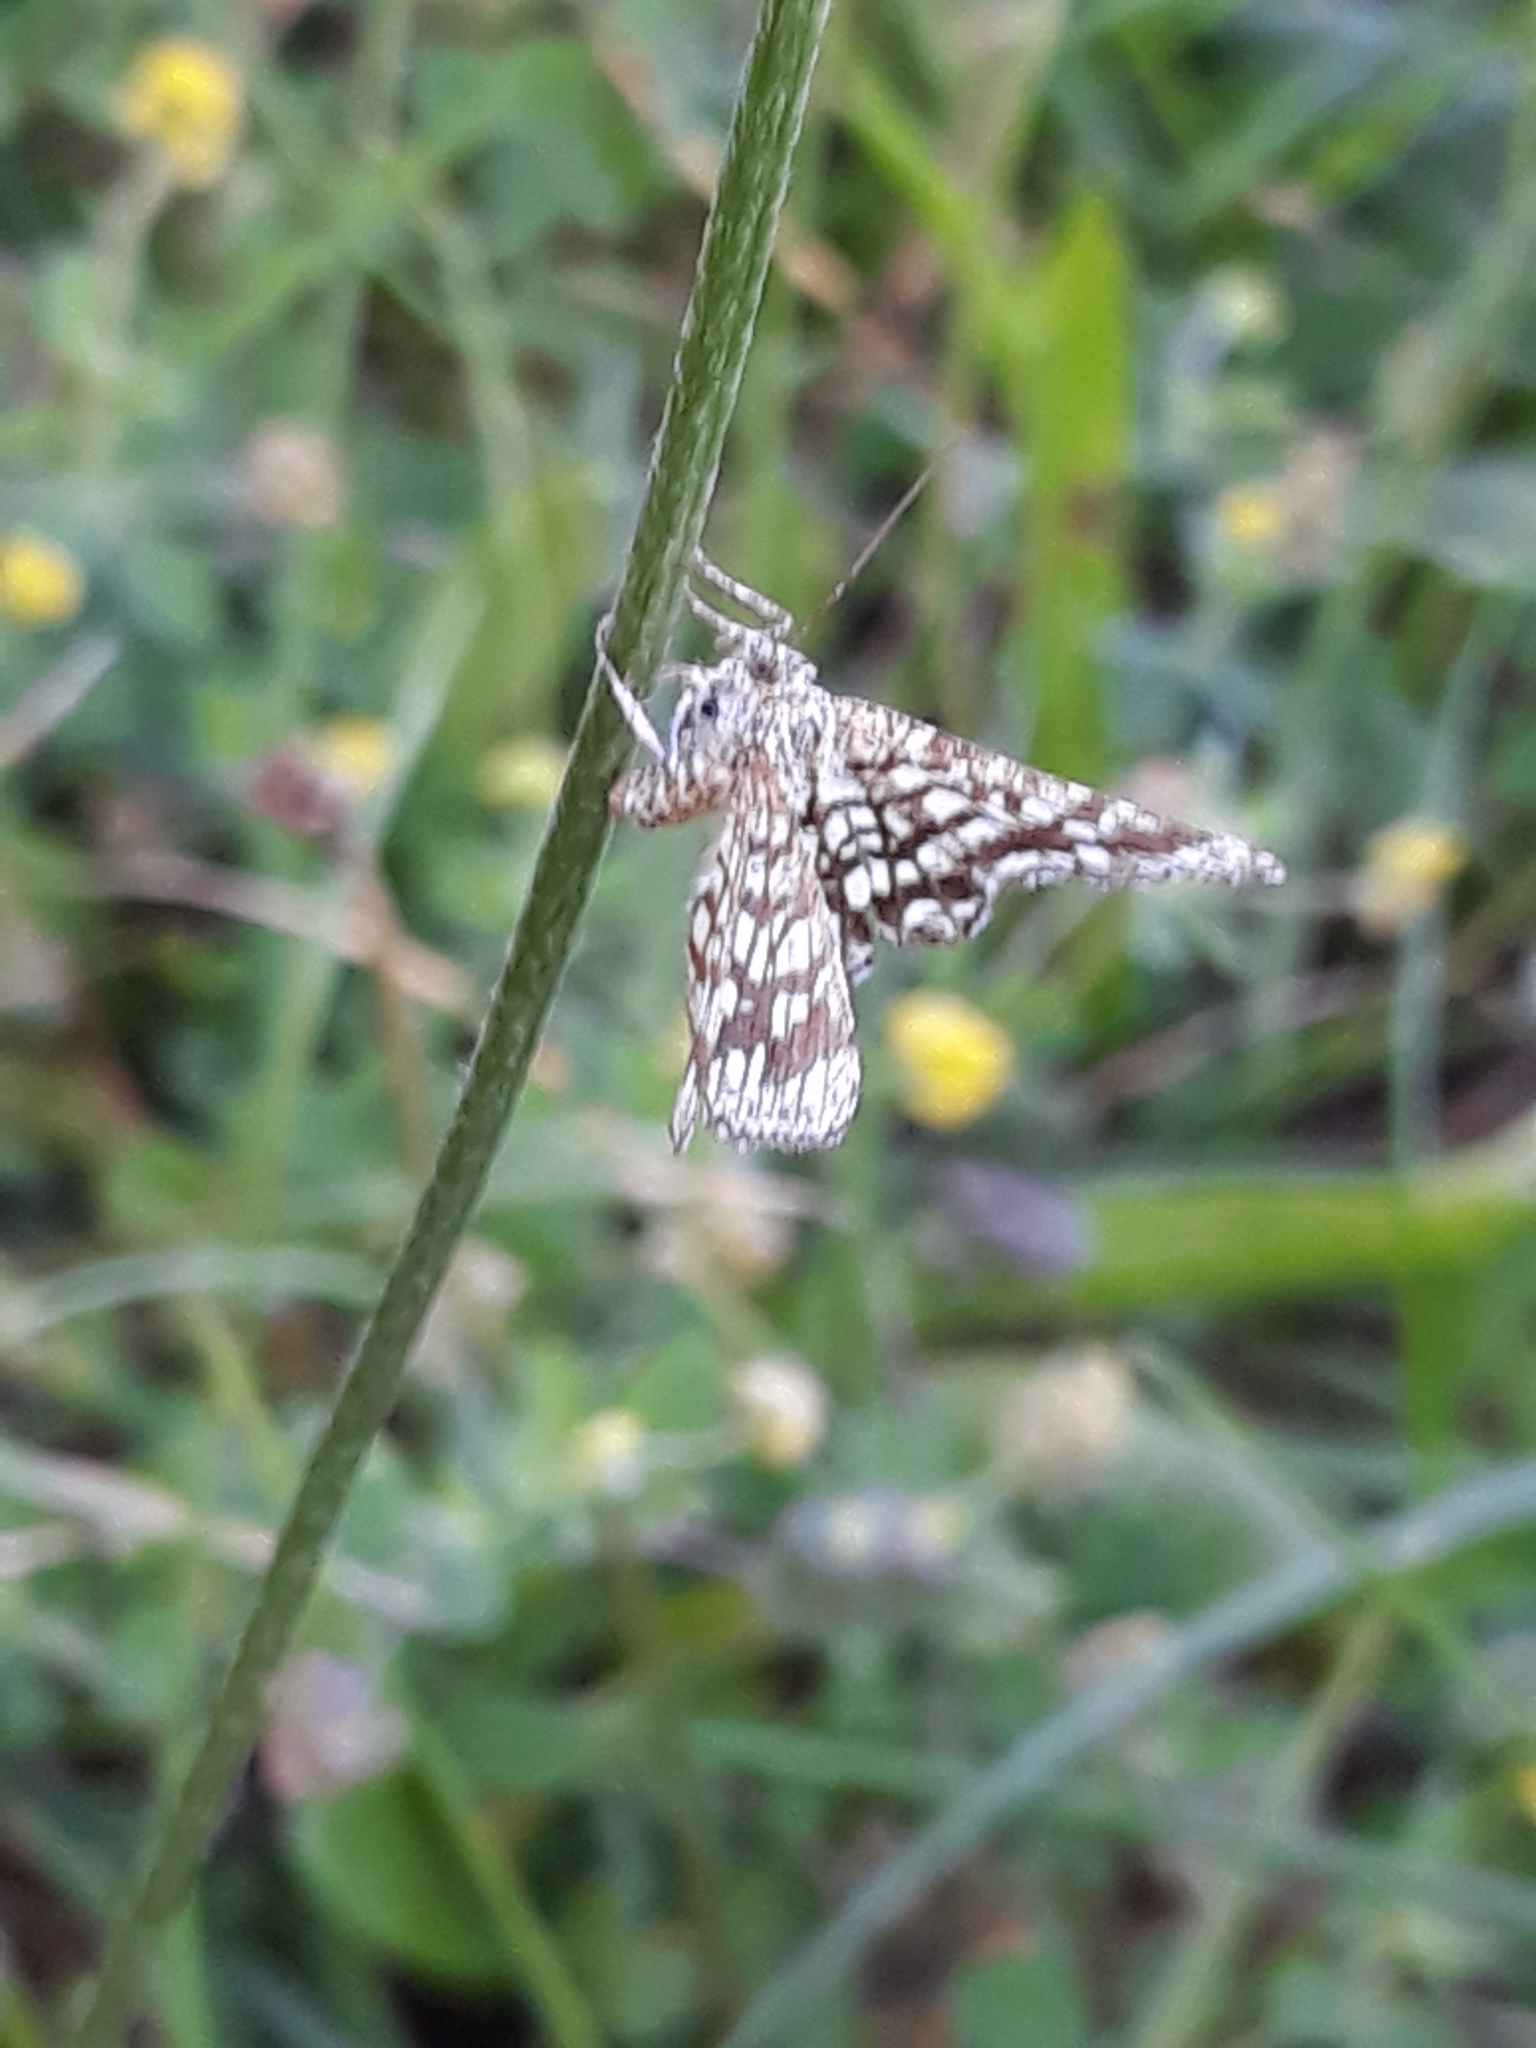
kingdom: Animalia
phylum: Arthropoda
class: Insecta
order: Lepidoptera
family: Geometridae
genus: Chiasmia
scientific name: Chiasmia clathrata
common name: Latticed heath
